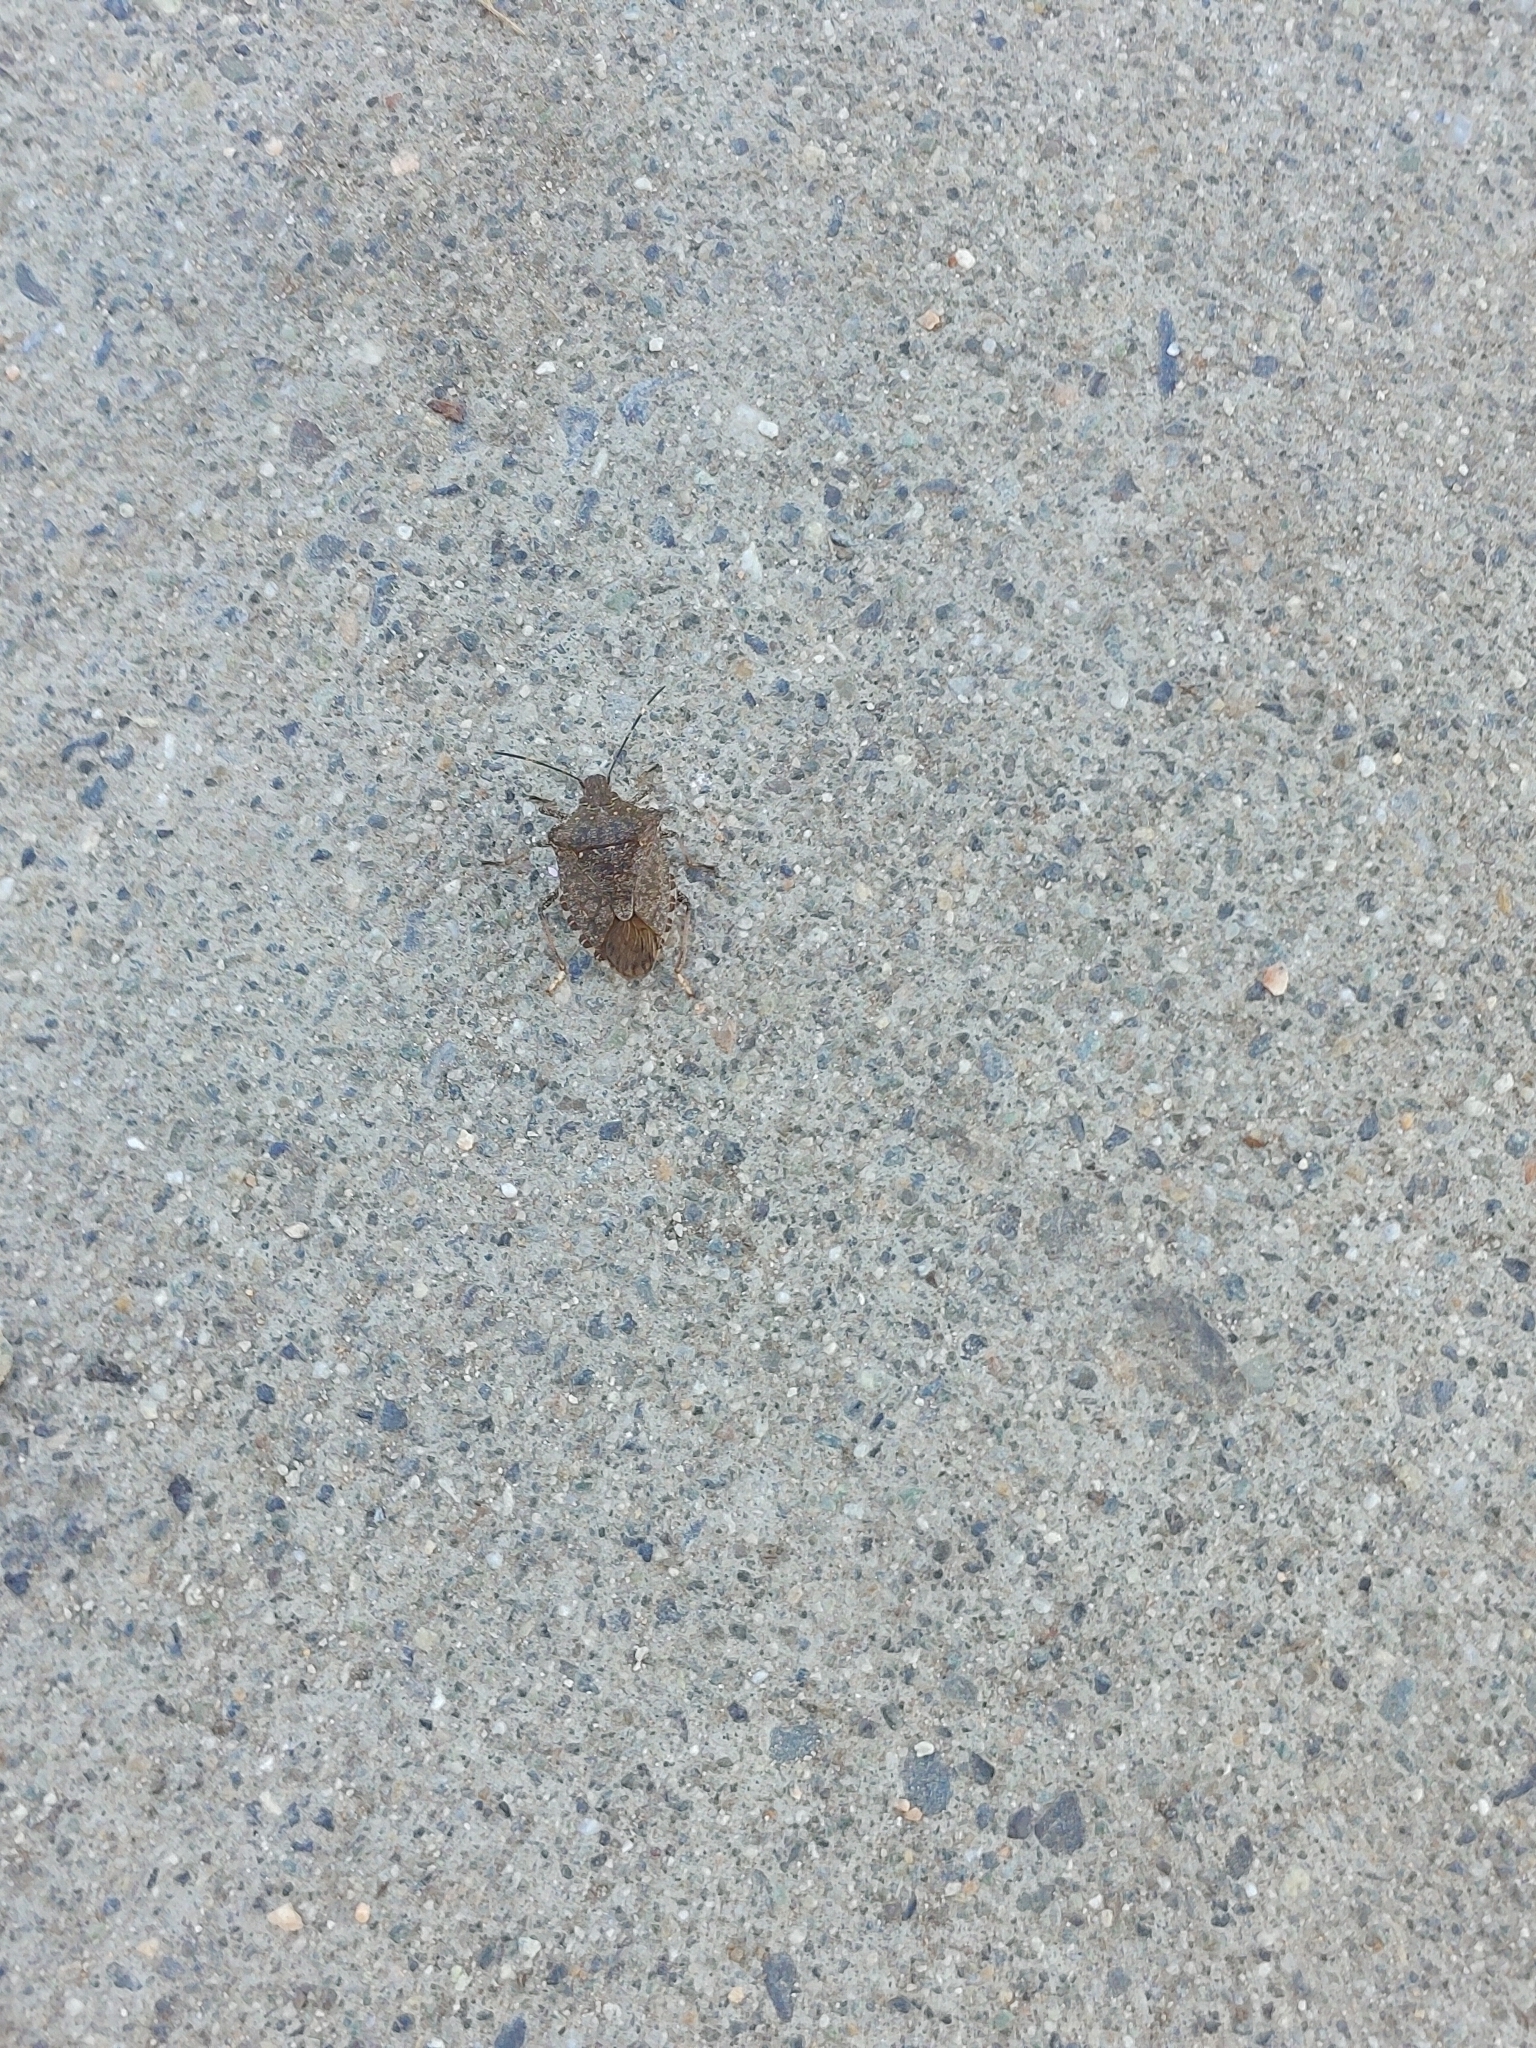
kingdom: Animalia
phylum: Arthropoda
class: Insecta
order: Hemiptera
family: Pentatomidae
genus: Halyomorpha
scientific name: Halyomorpha halys
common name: Brown marmorated stink bug
